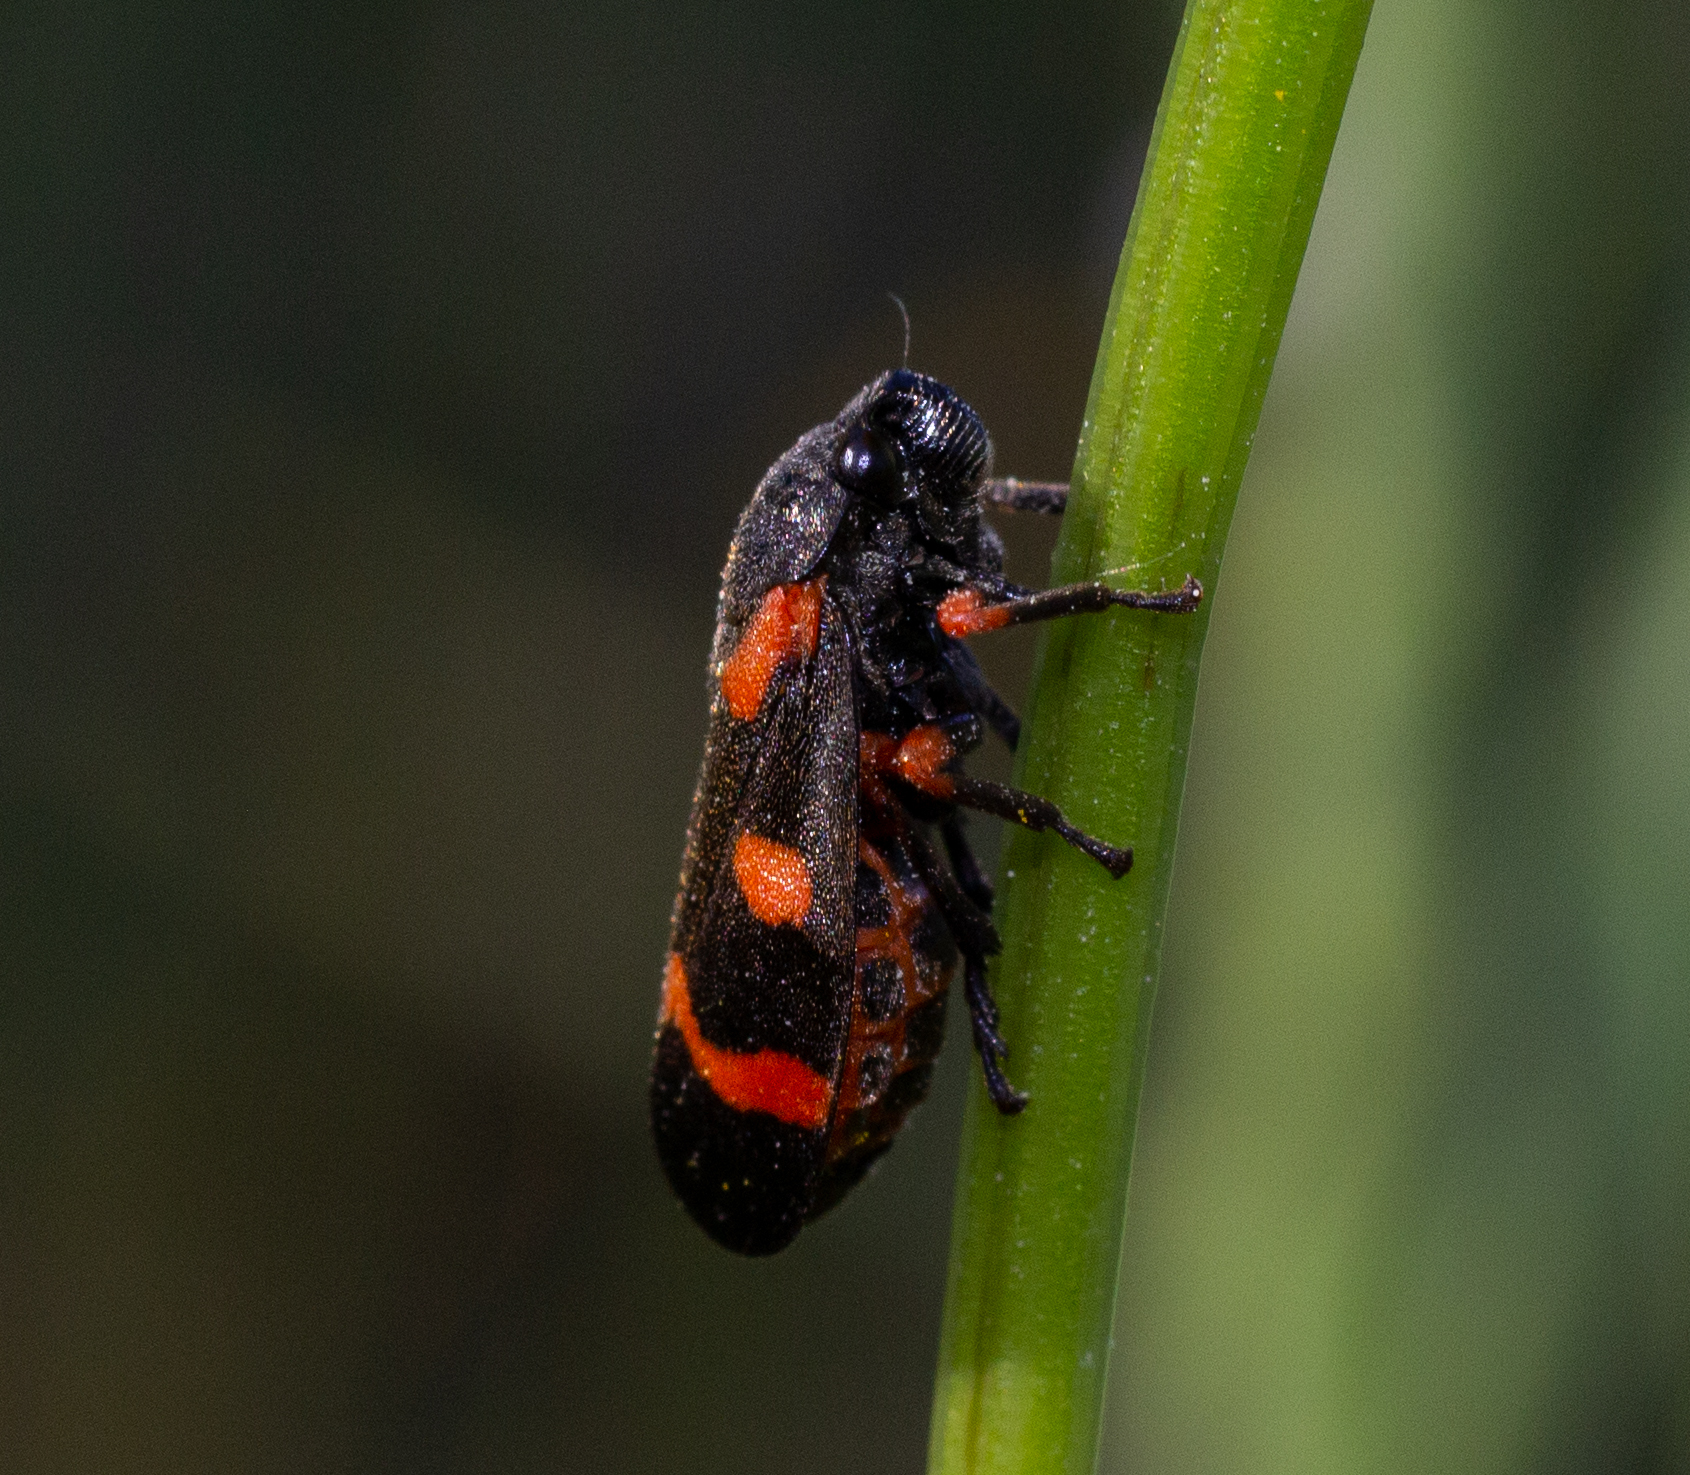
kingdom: Animalia
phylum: Arthropoda
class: Insecta
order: Hemiptera
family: Cercopidae
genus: Cercopis
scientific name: Cercopis intermedia
